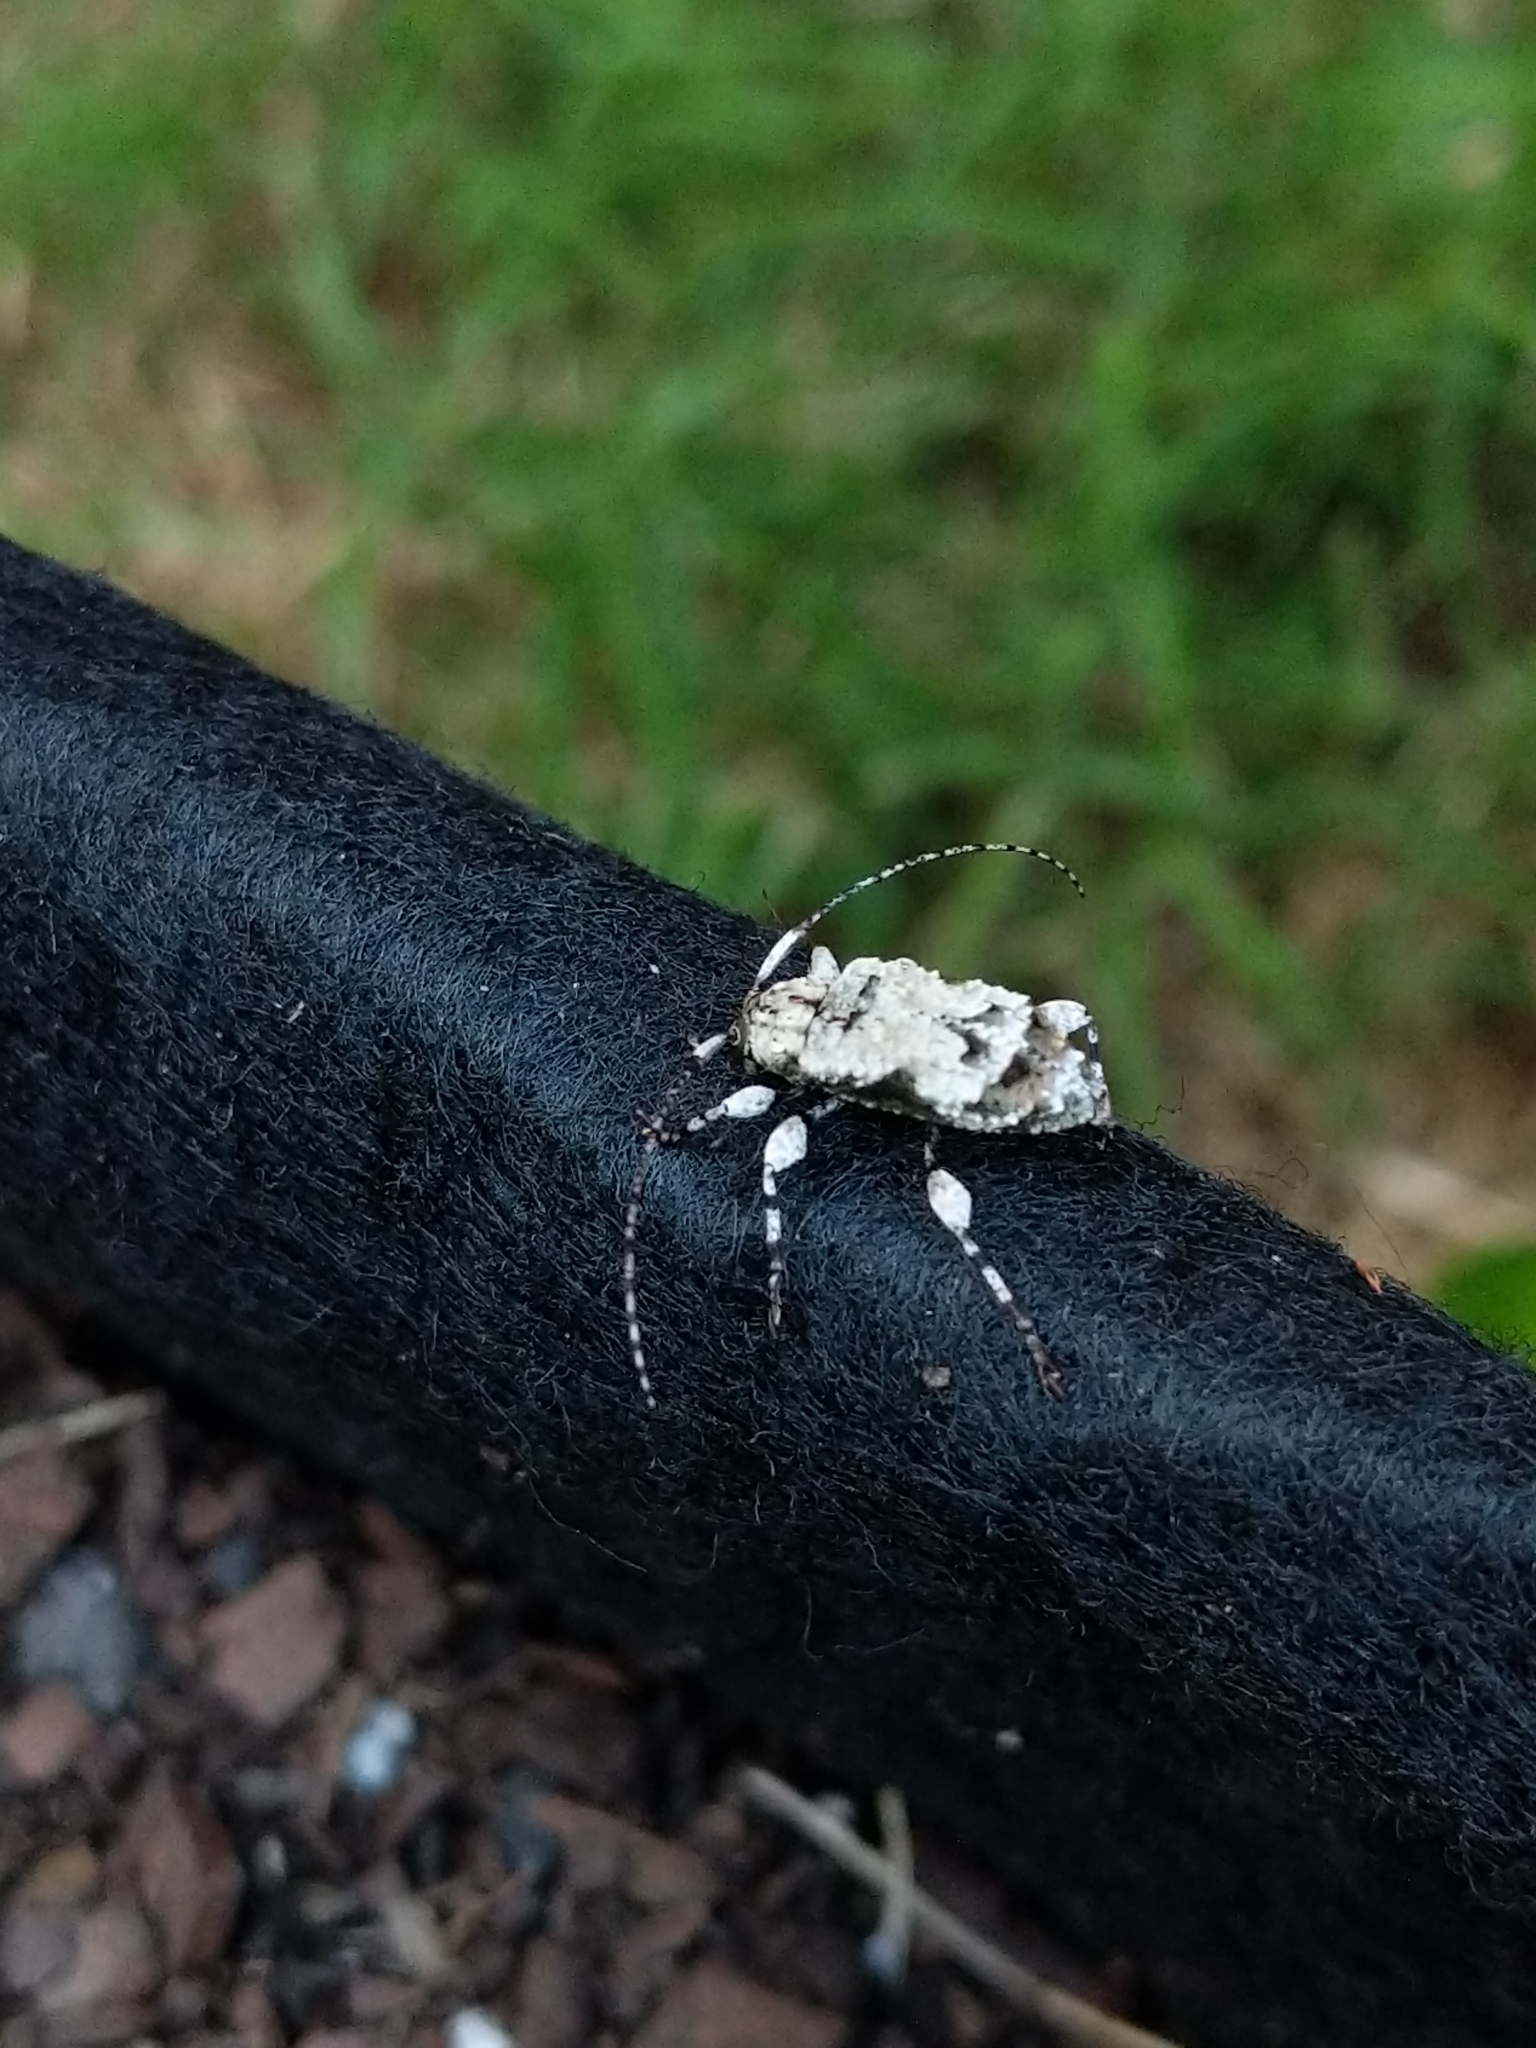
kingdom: Animalia
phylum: Arthropoda
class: Insecta
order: Coleoptera
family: Cerambycidae
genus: Leptostylus
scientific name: Leptostylus asperatus
